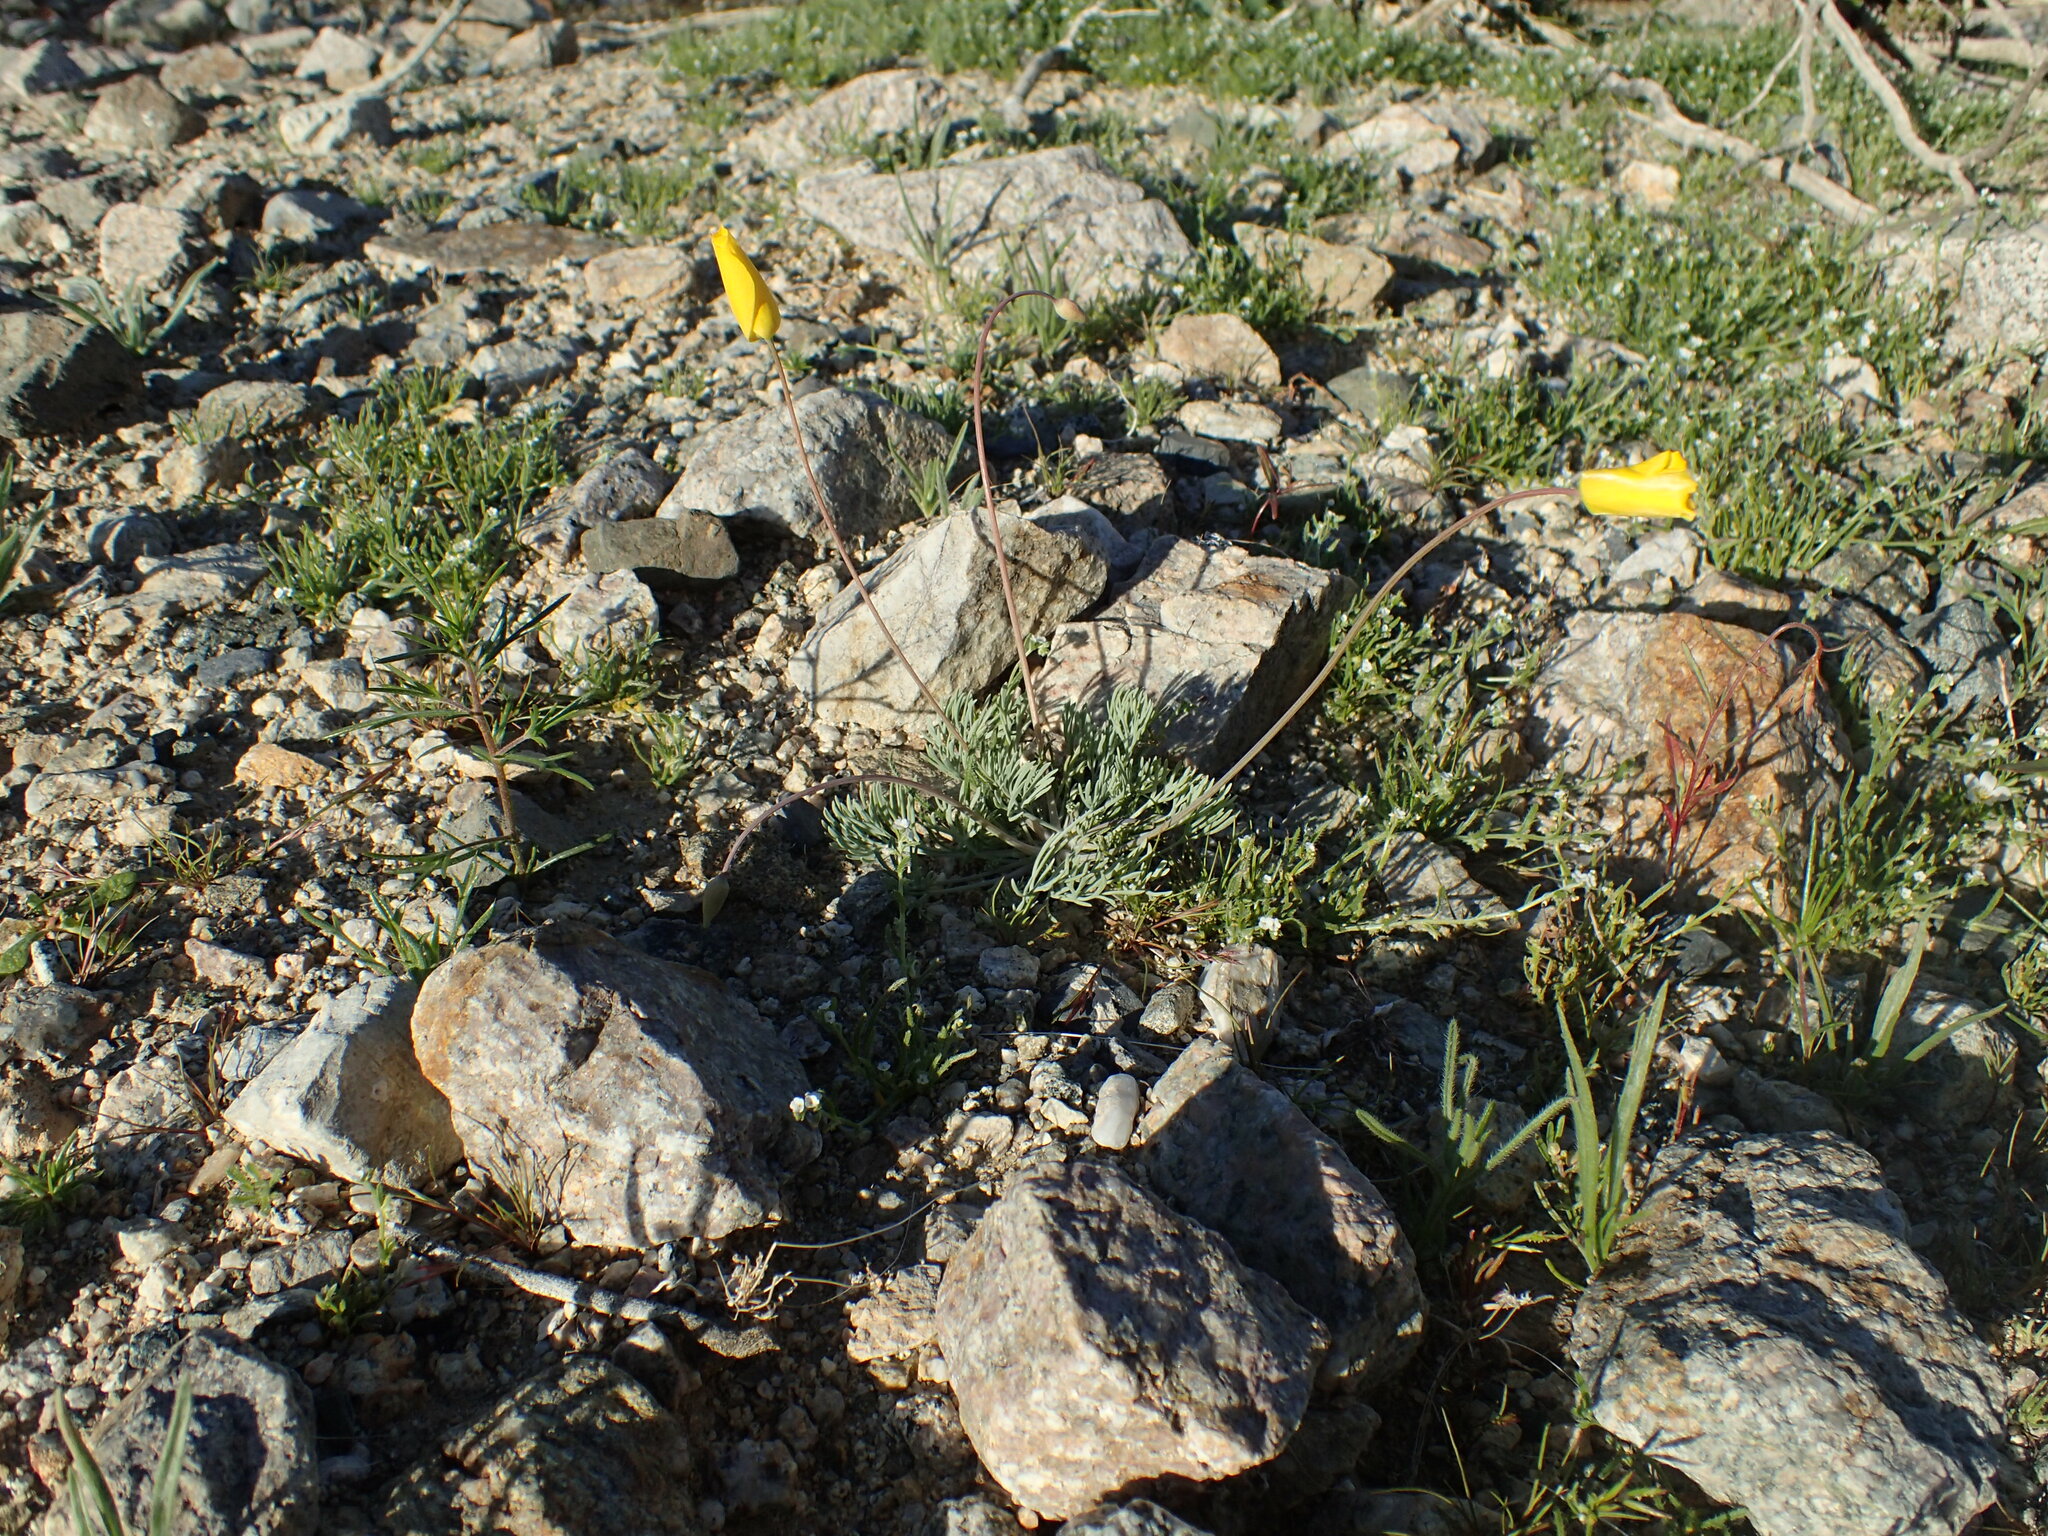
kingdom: Plantae
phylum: Tracheophyta
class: Magnoliopsida
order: Ranunculales
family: Papaveraceae
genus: Eschscholzia
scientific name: Eschscholzia glyptosperma
